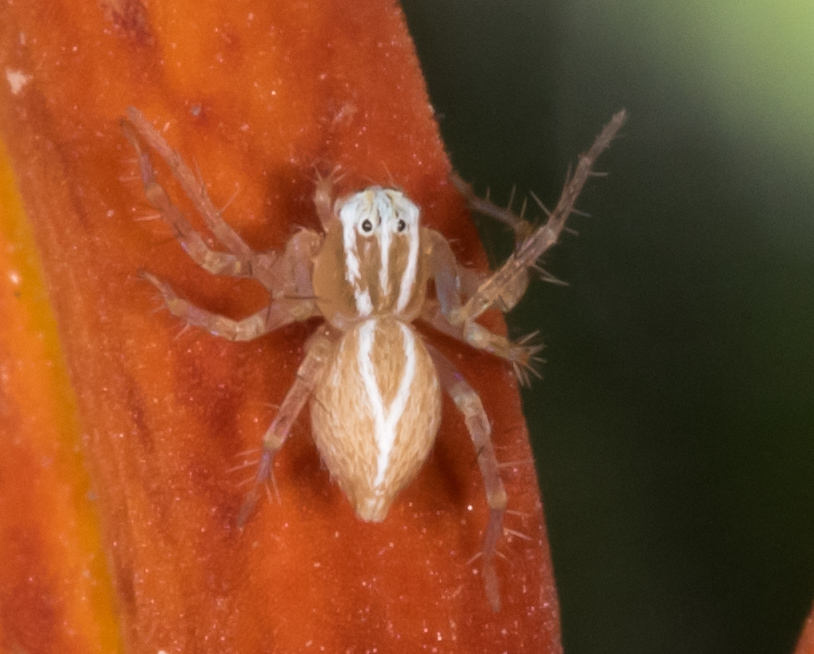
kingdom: Animalia
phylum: Arthropoda
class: Arachnida
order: Araneae
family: Oxyopidae
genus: Oxyopes
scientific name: Oxyopes salticus
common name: Lynx spiders
